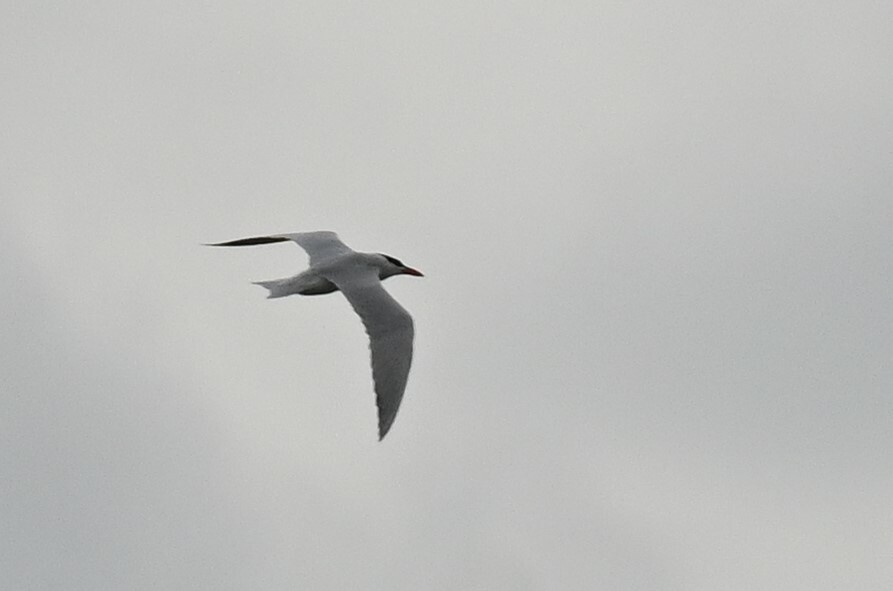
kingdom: Animalia
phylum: Chordata
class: Aves
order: Charadriiformes
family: Laridae
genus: Hydroprogne
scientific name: Hydroprogne caspia
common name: Caspian tern
